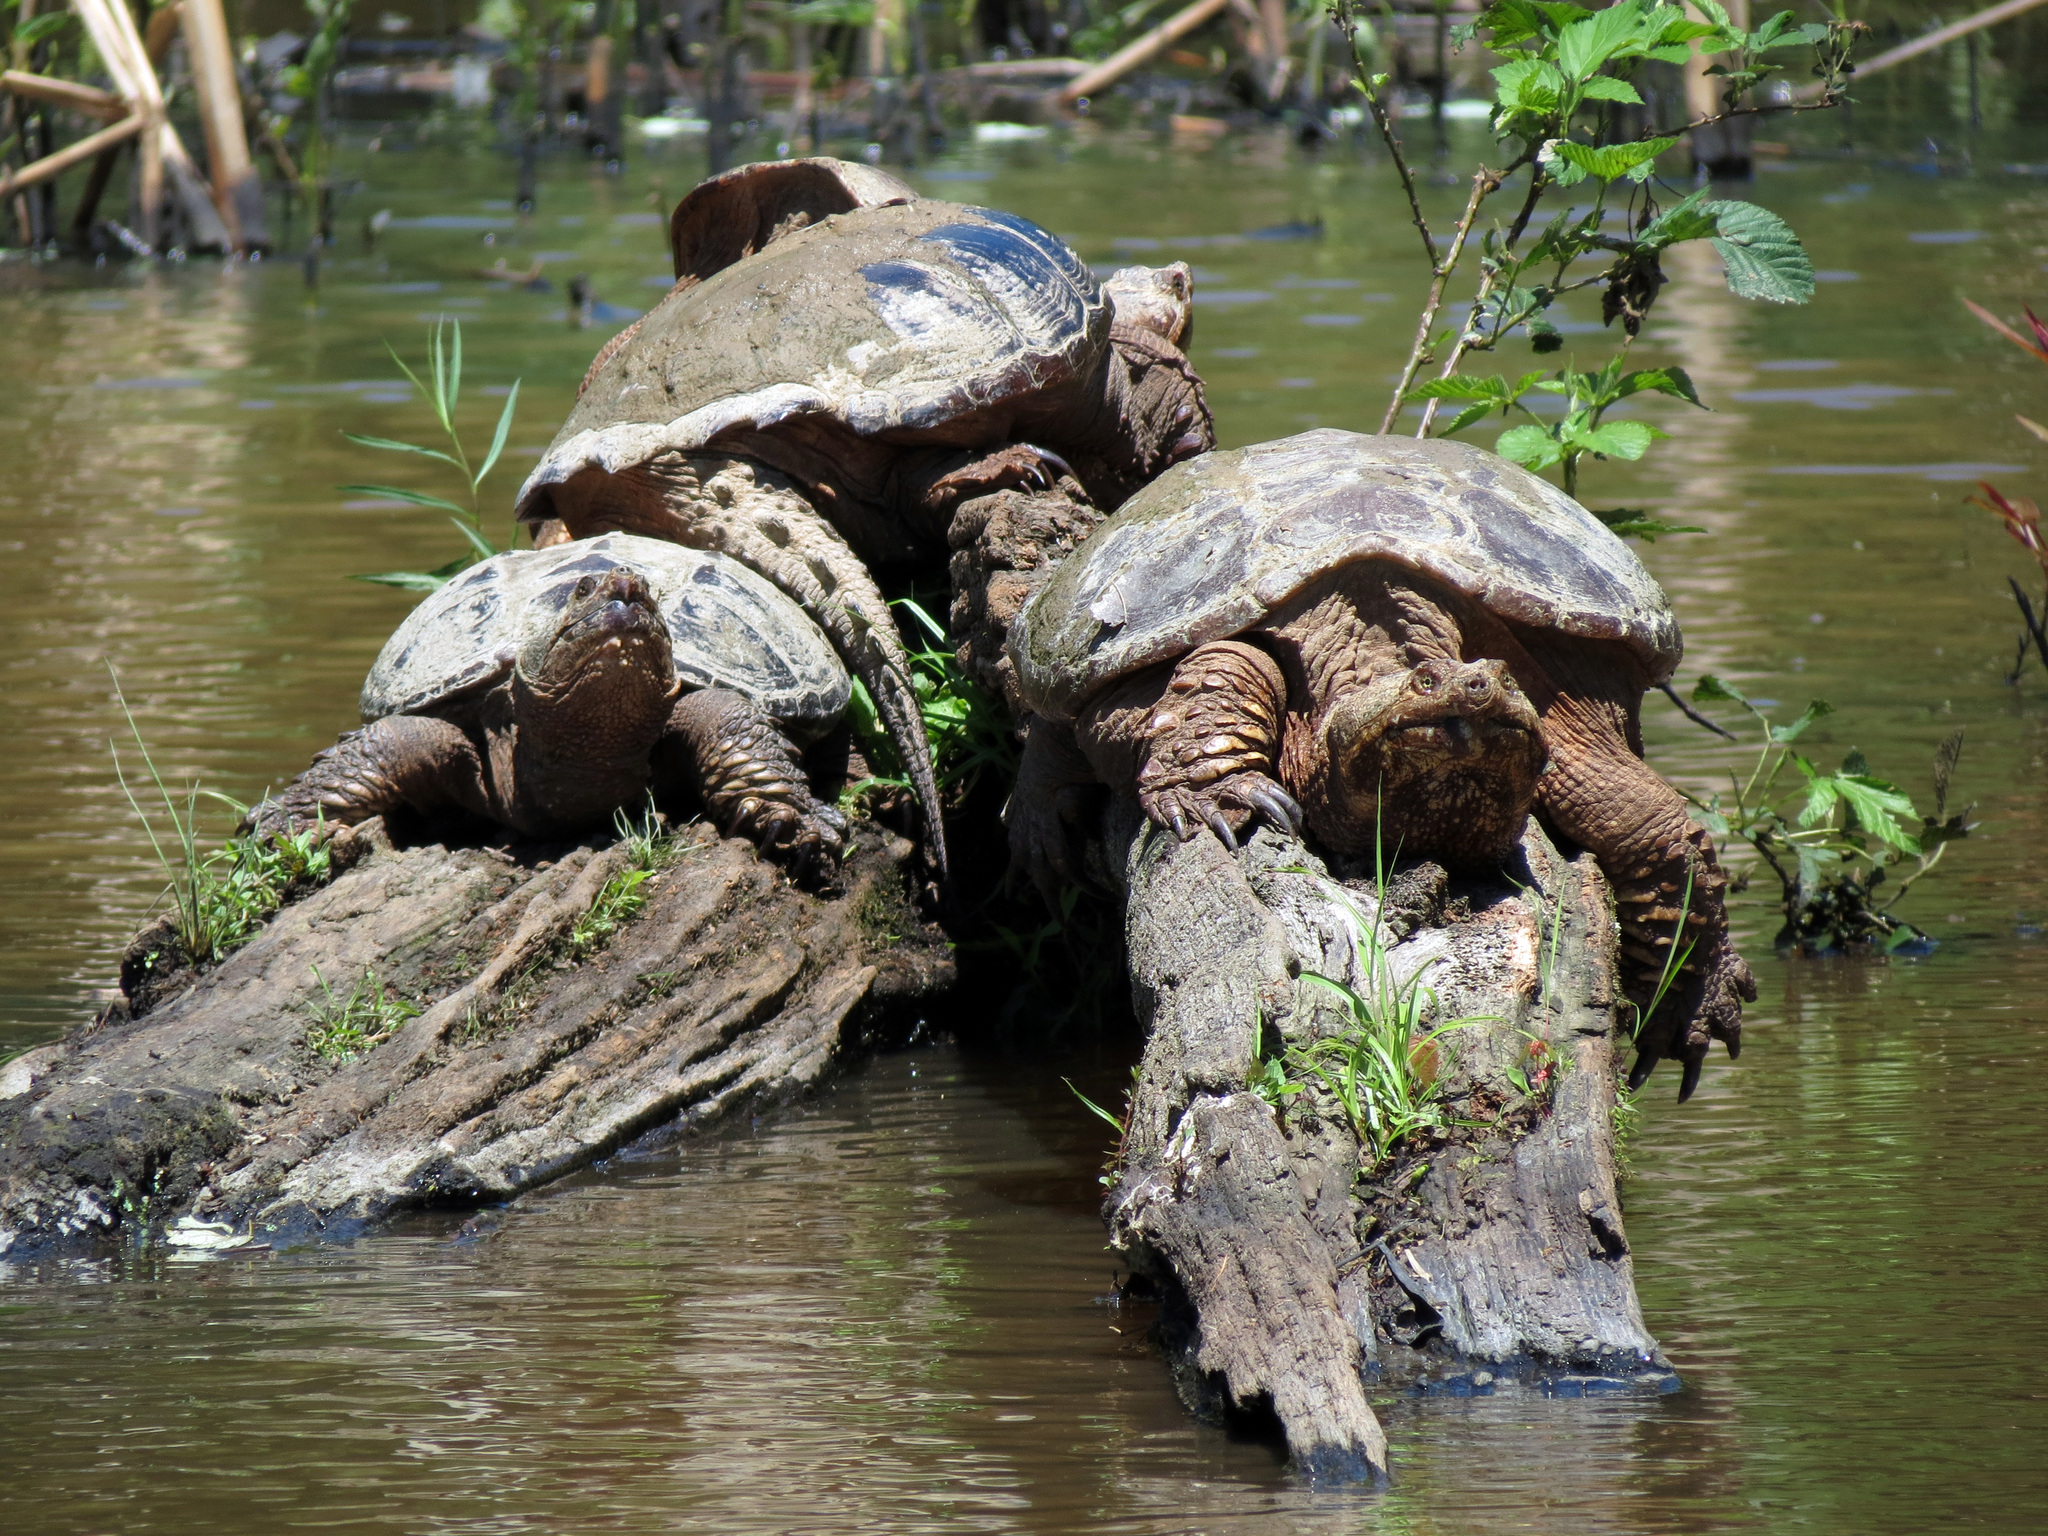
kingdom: Animalia
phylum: Chordata
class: Testudines
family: Chelydridae
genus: Chelydra
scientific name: Chelydra serpentina
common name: Common snapping turtle
